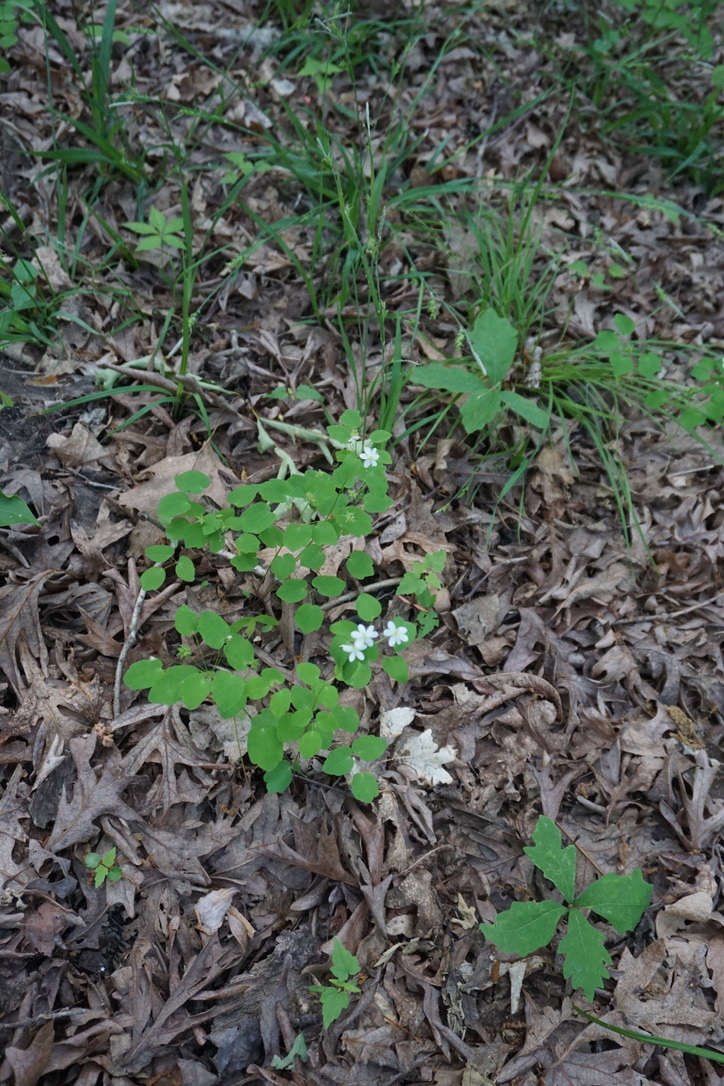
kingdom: Plantae
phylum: Tracheophyta
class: Magnoliopsida
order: Ranunculales
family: Ranunculaceae
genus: Thalictrum
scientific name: Thalictrum thalictroides
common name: Rue-anemone
